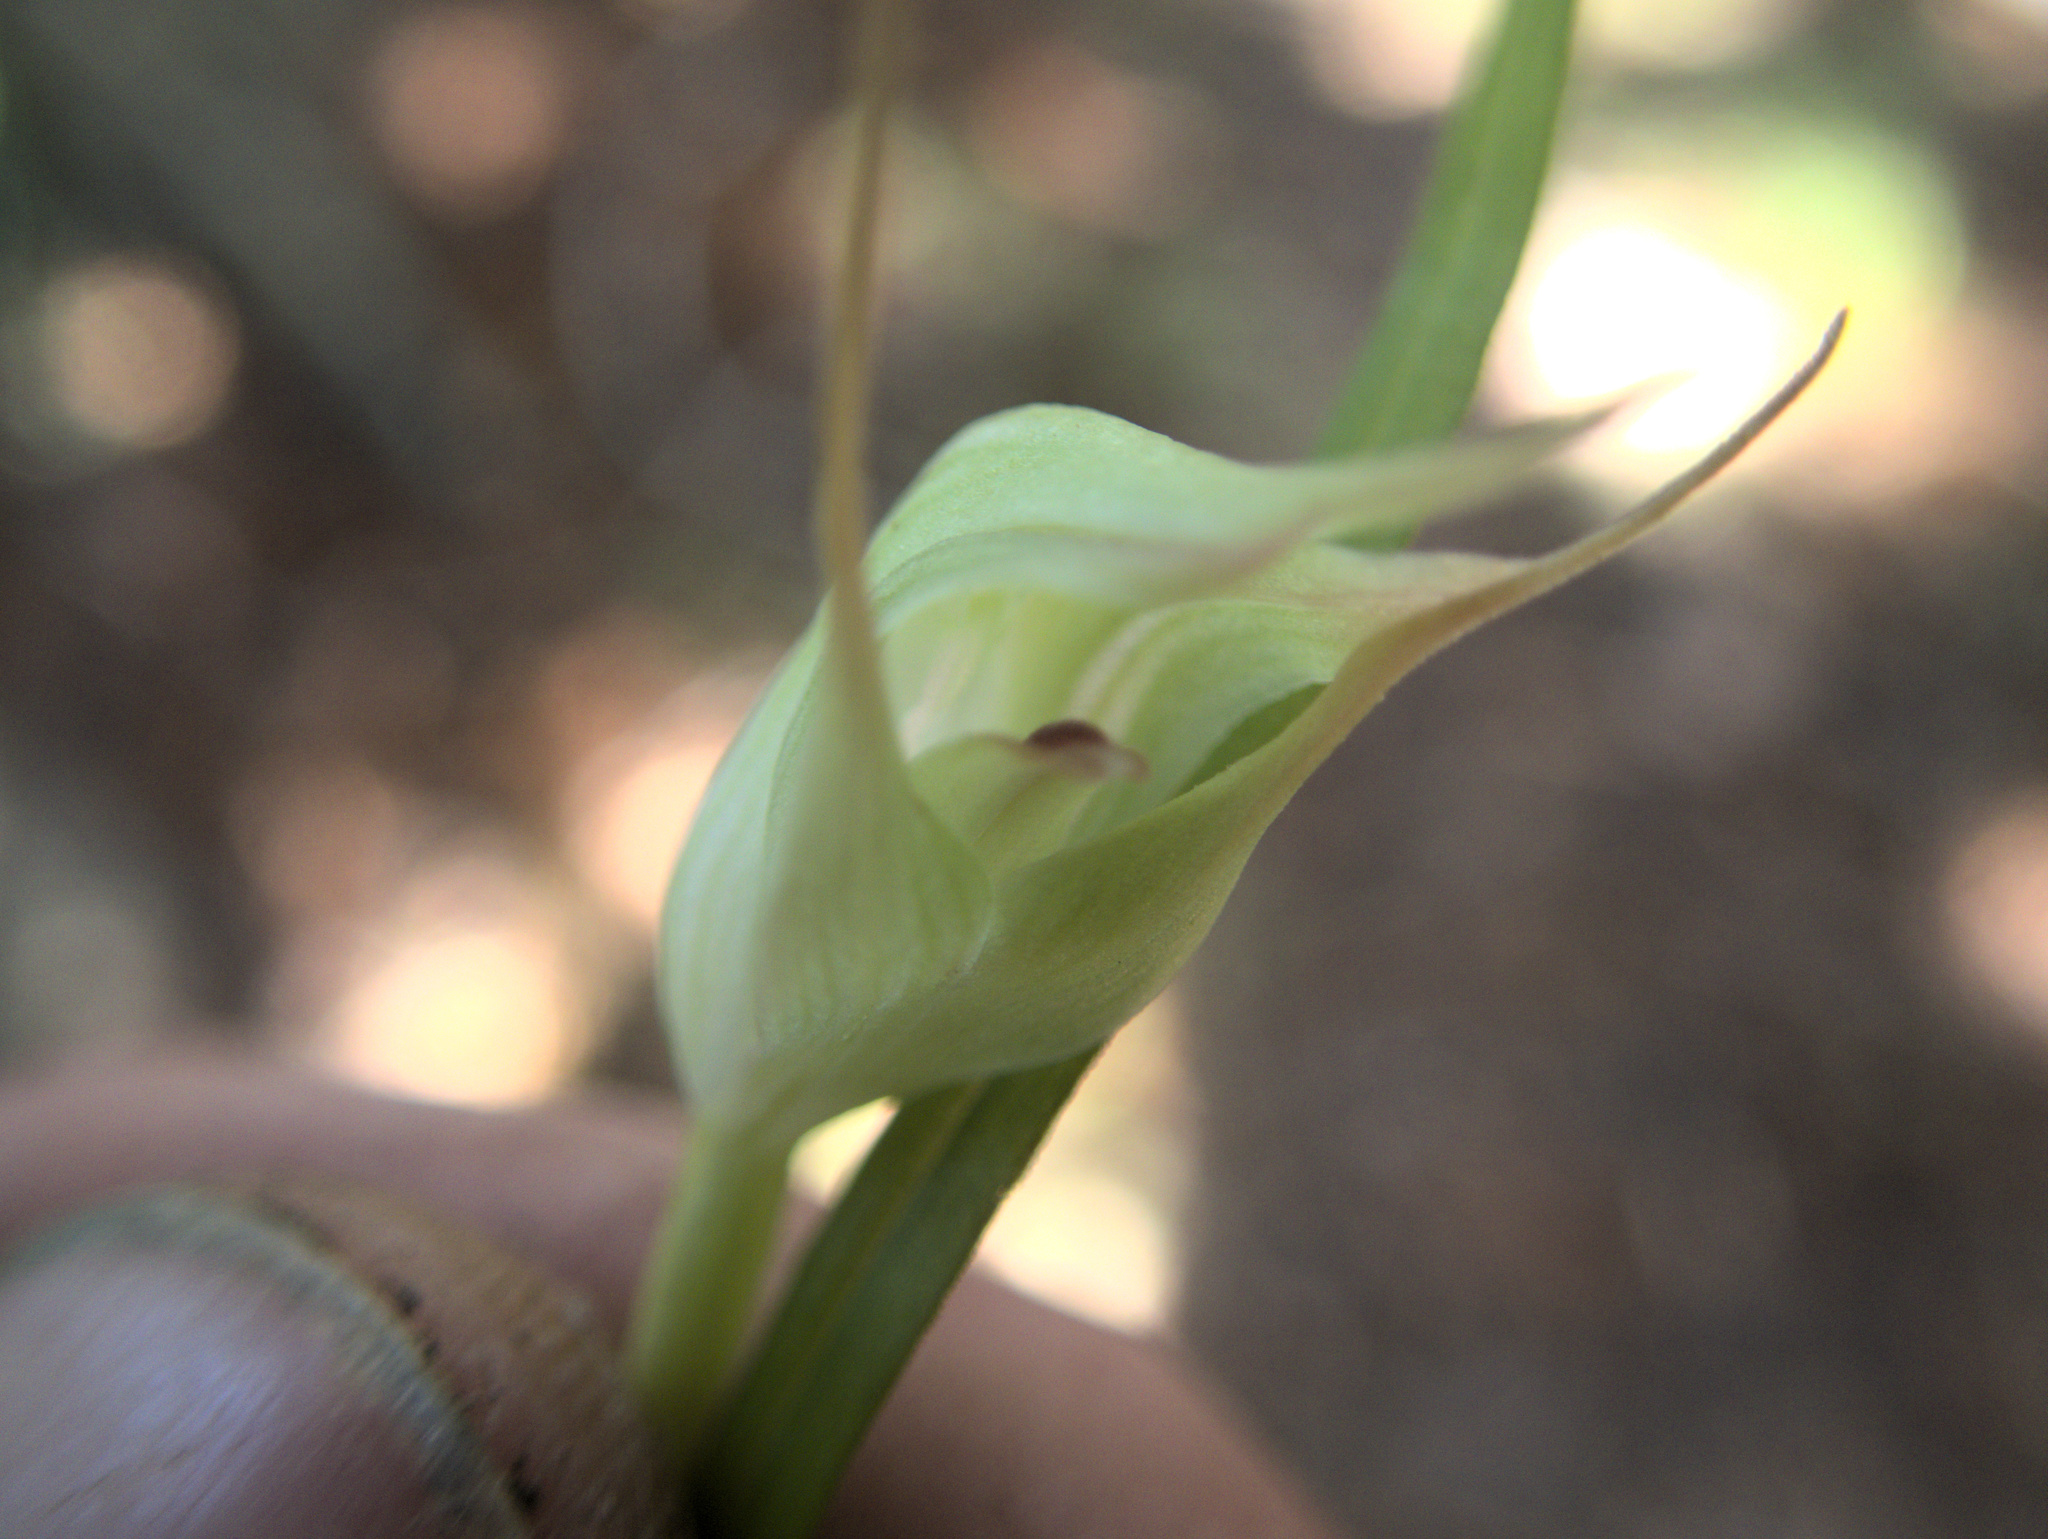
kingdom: Plantae
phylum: Tracheophyta
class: Liliopsida
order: Asparagales
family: Orchidaceae
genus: Pterostylis
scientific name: Pterostylis agathicola
